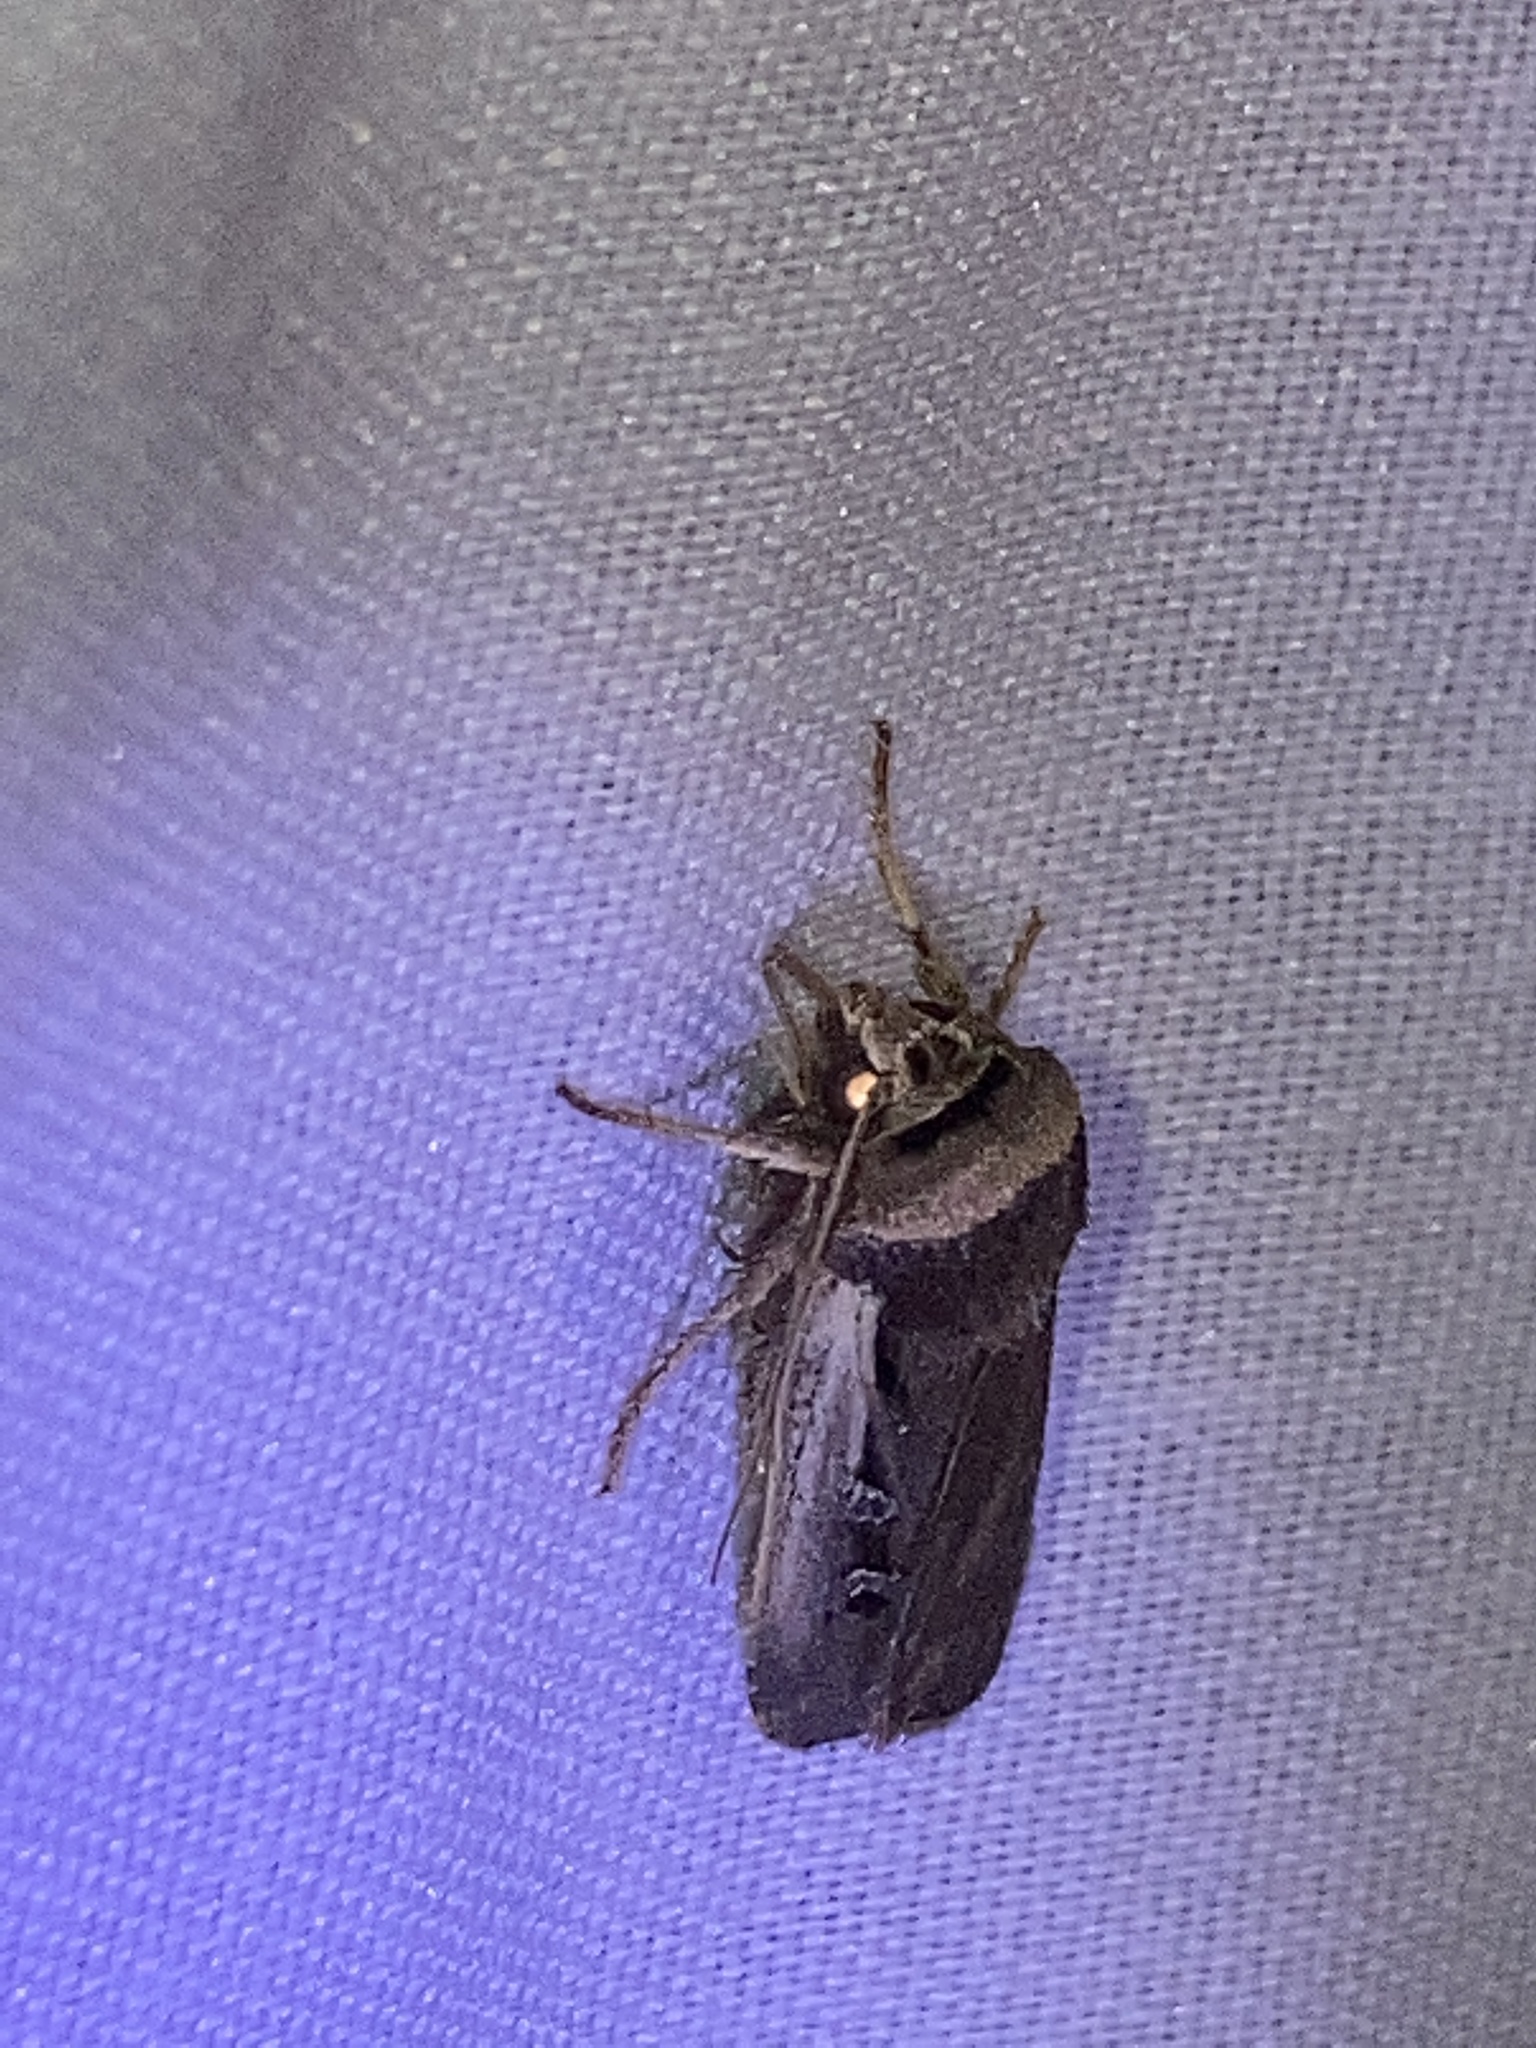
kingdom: Animalia
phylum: Arthropoda
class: Insecta
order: Lepidoptera
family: Noctuidae
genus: Ochropleura
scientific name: Ochropleura implecta
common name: Flame-shouldered dart
